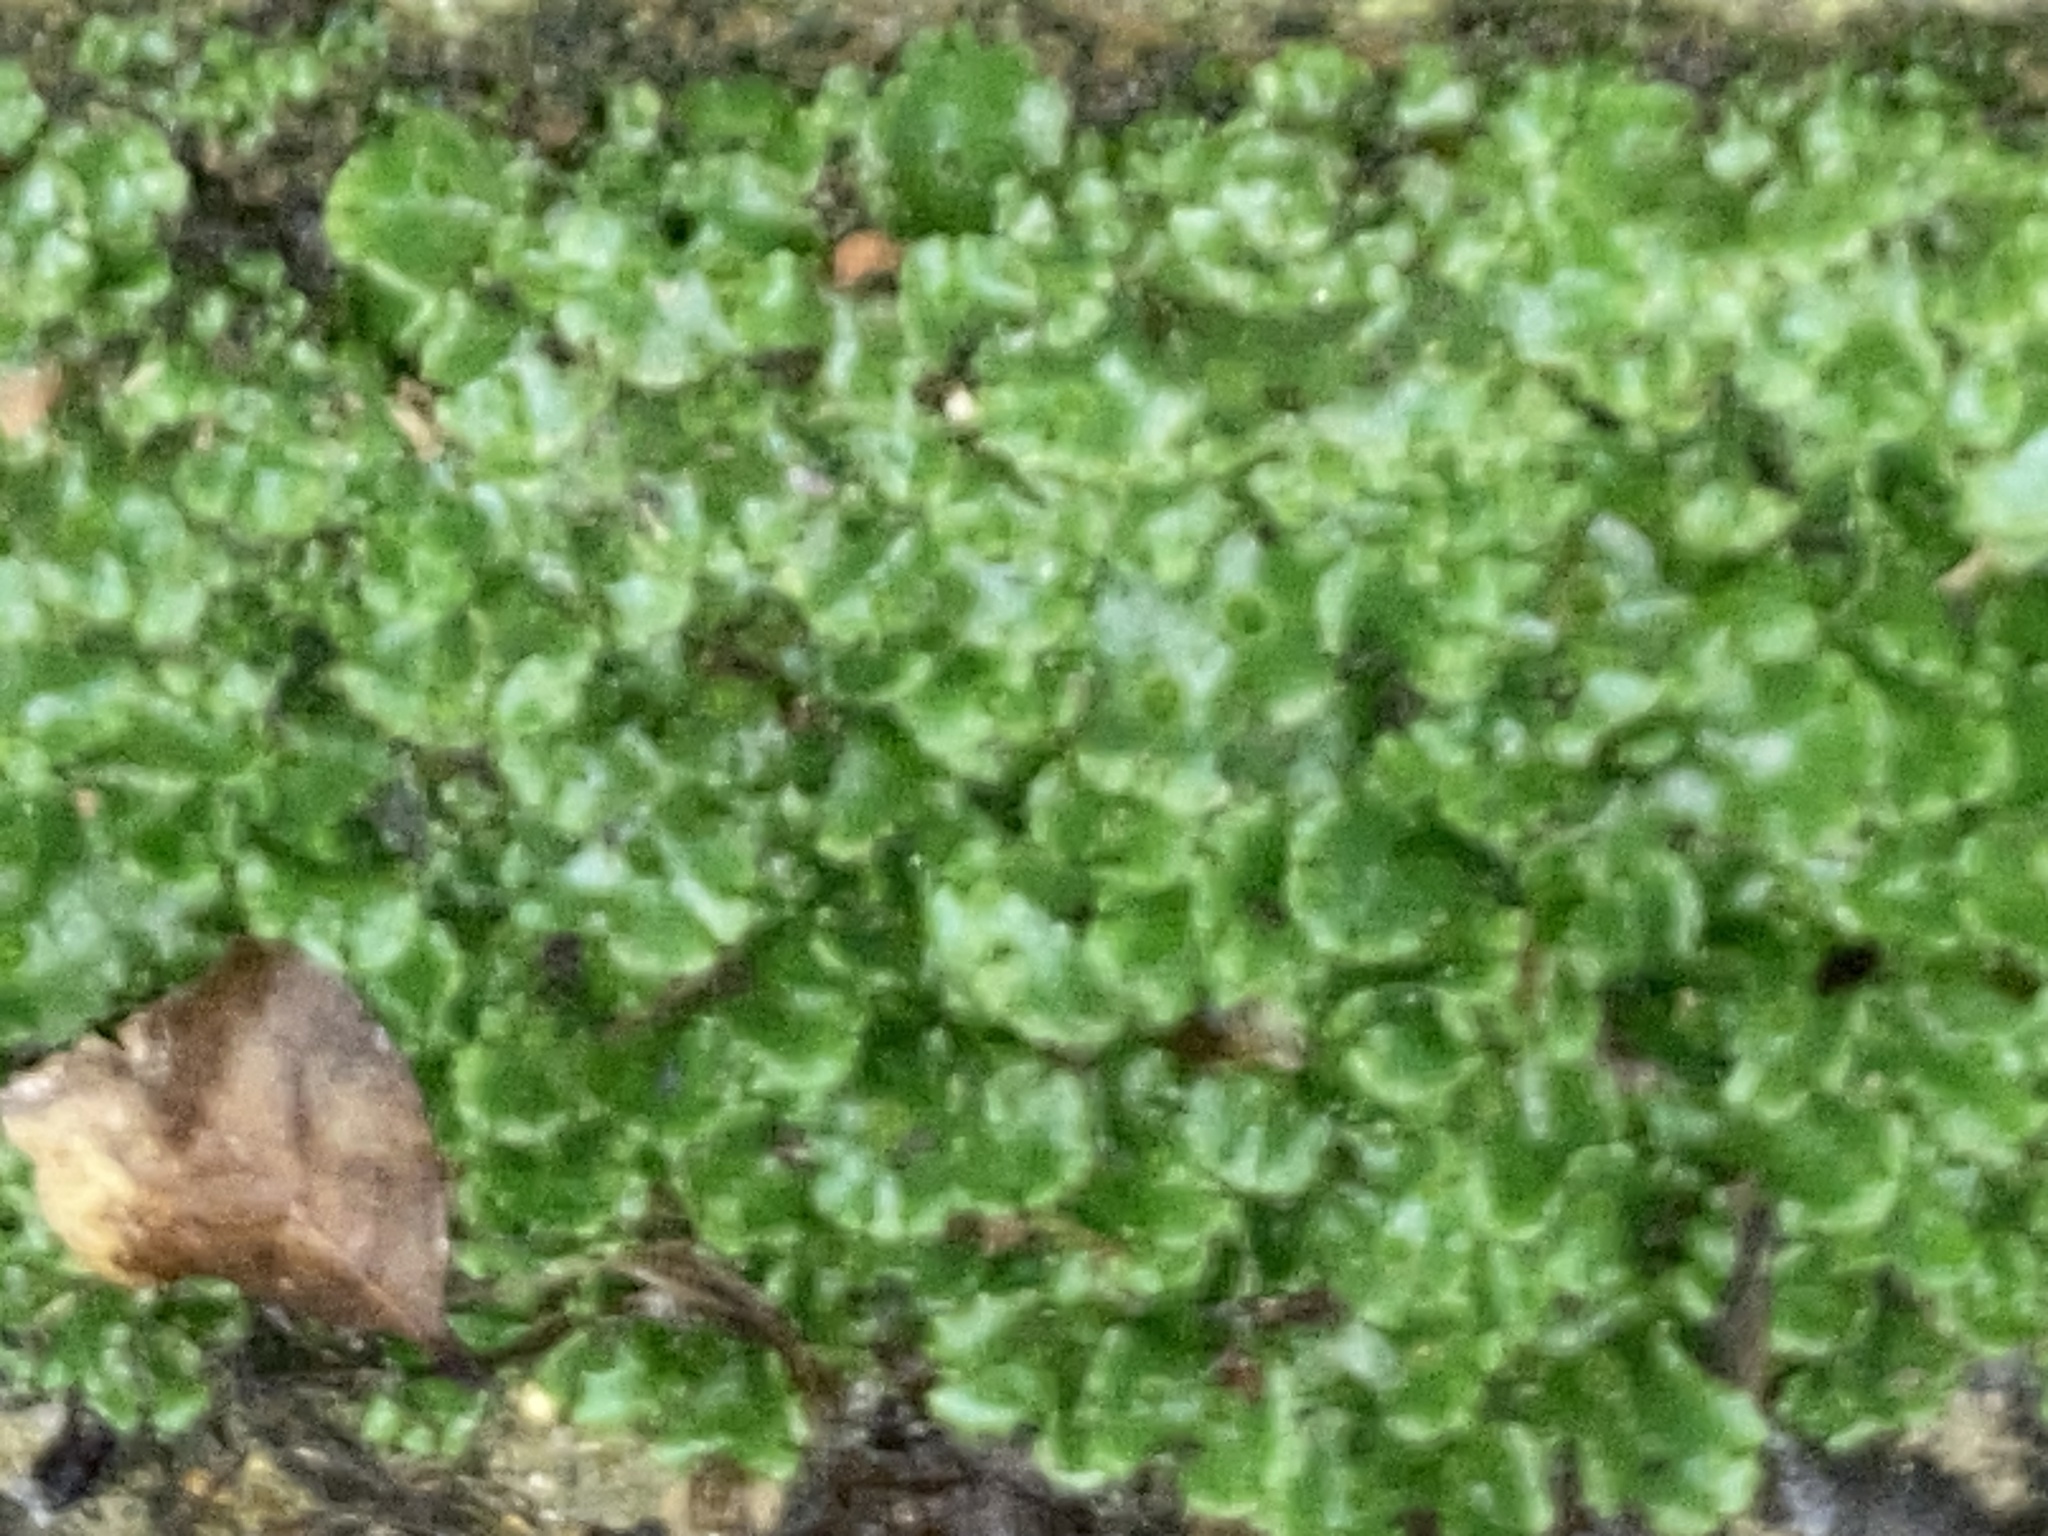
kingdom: Plantae
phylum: Marchantiophyta
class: Marchantiopsida
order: Marchantiales
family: Marchantiaceae
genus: Marchantia
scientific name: Marchantia polymorpha
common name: Common liverwort
